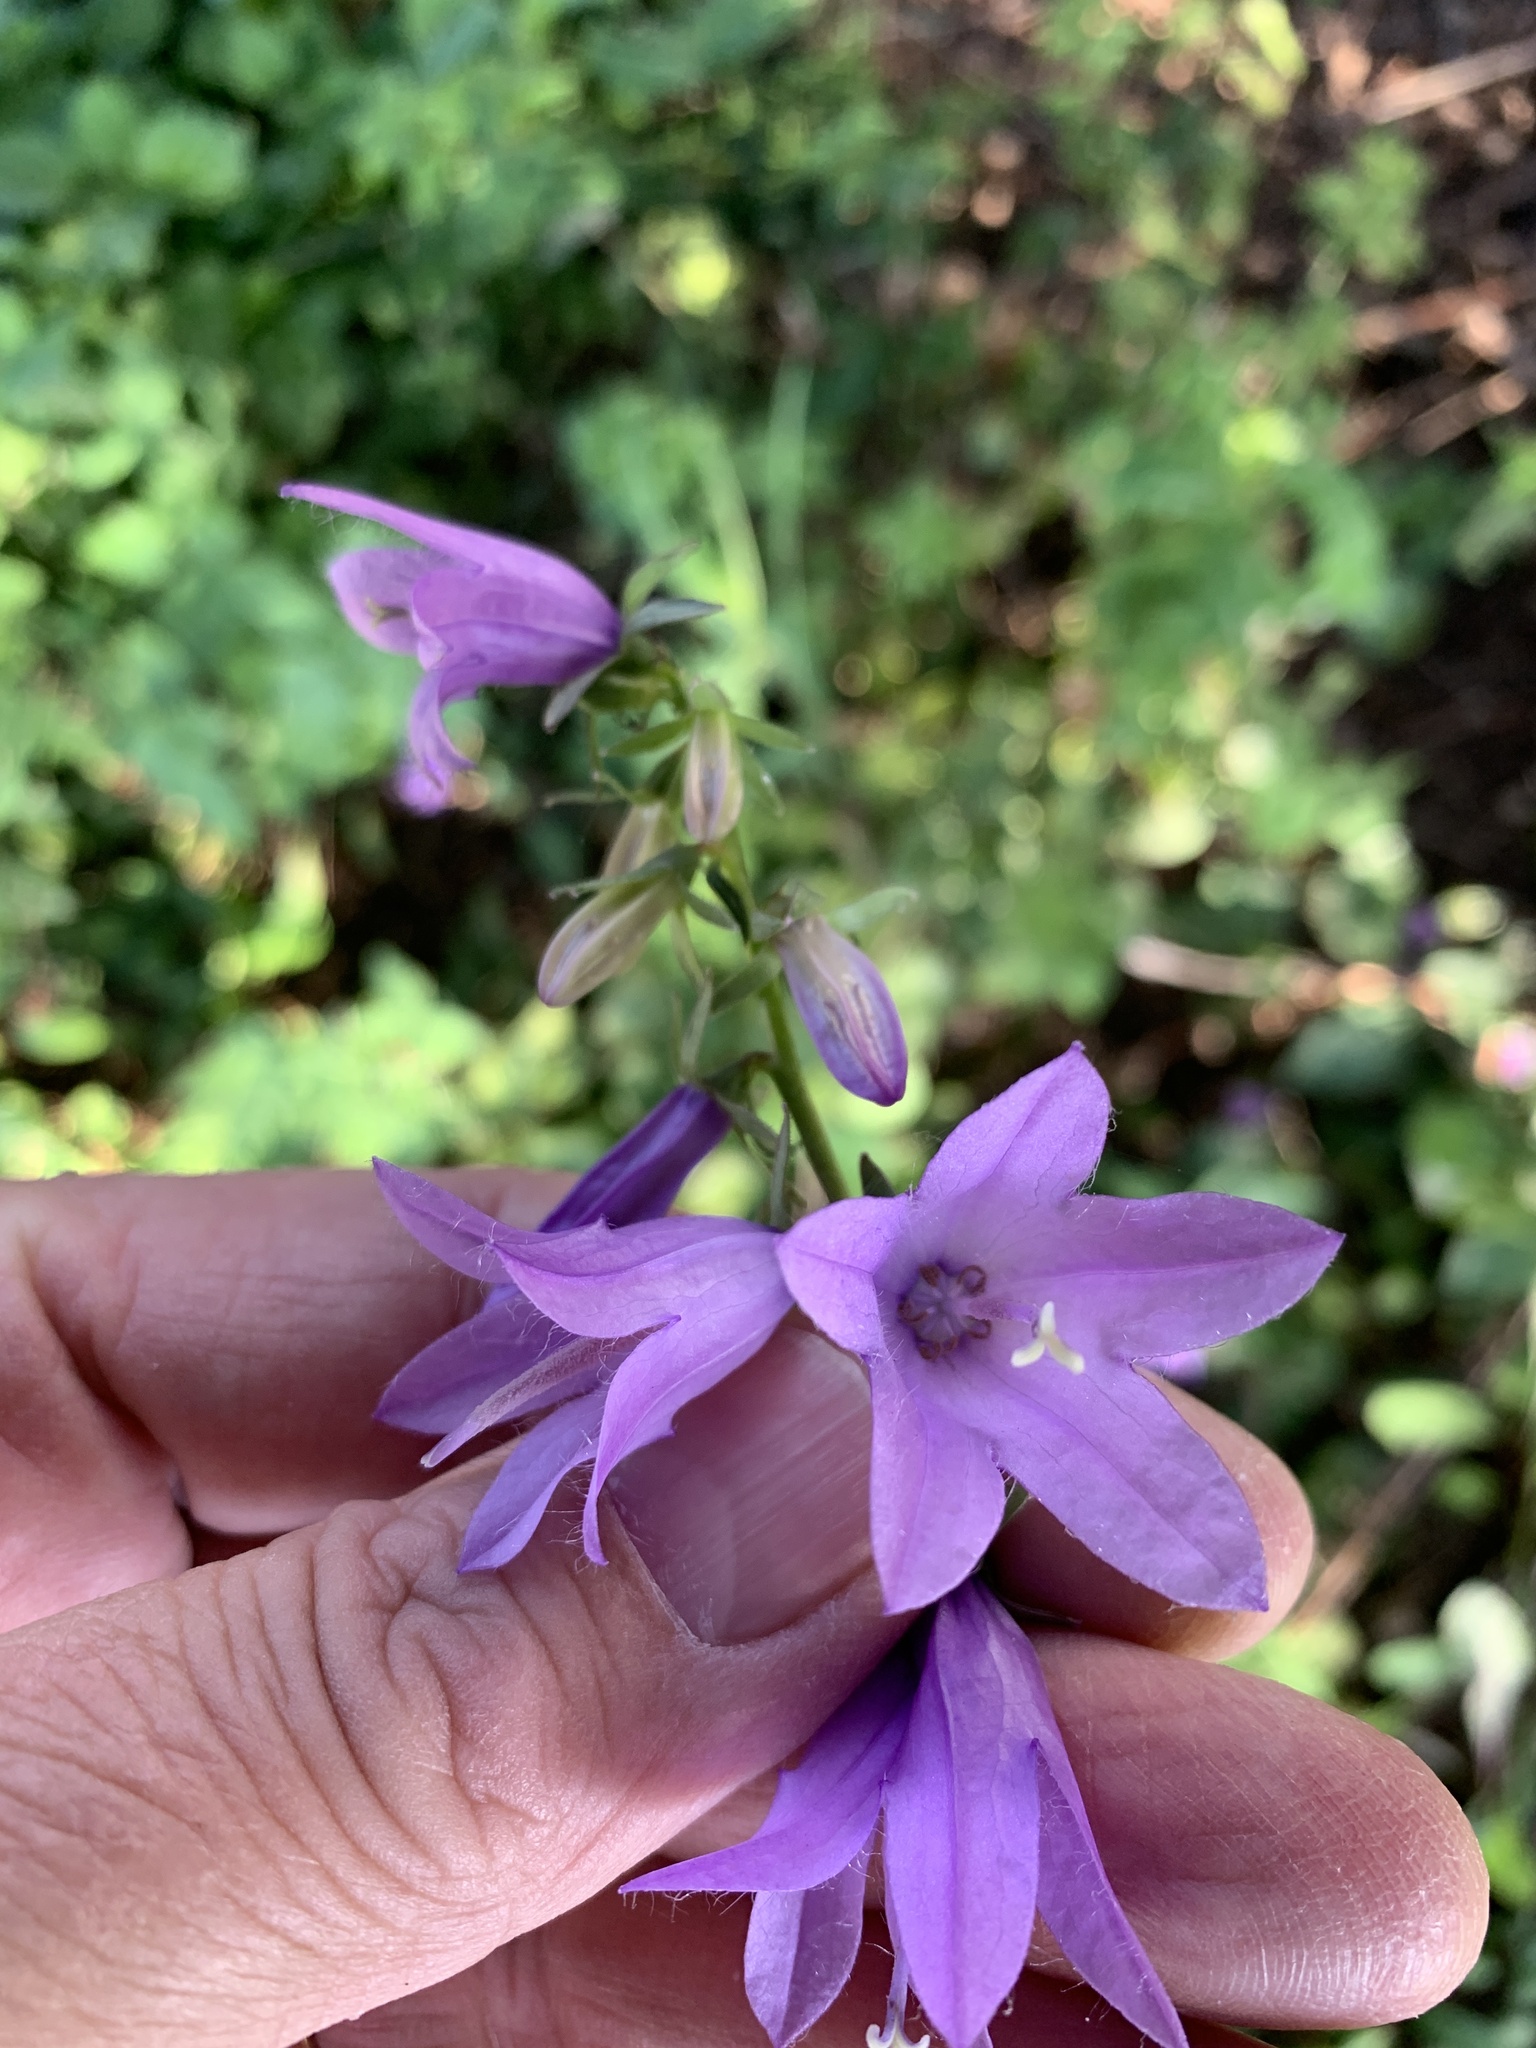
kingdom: Plantae
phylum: Tracheophyta
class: Magnoliopsida
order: Asterales
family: Campanulaceae
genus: Campanula
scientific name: Campanula rapunculoides
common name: Creeping bellflower
